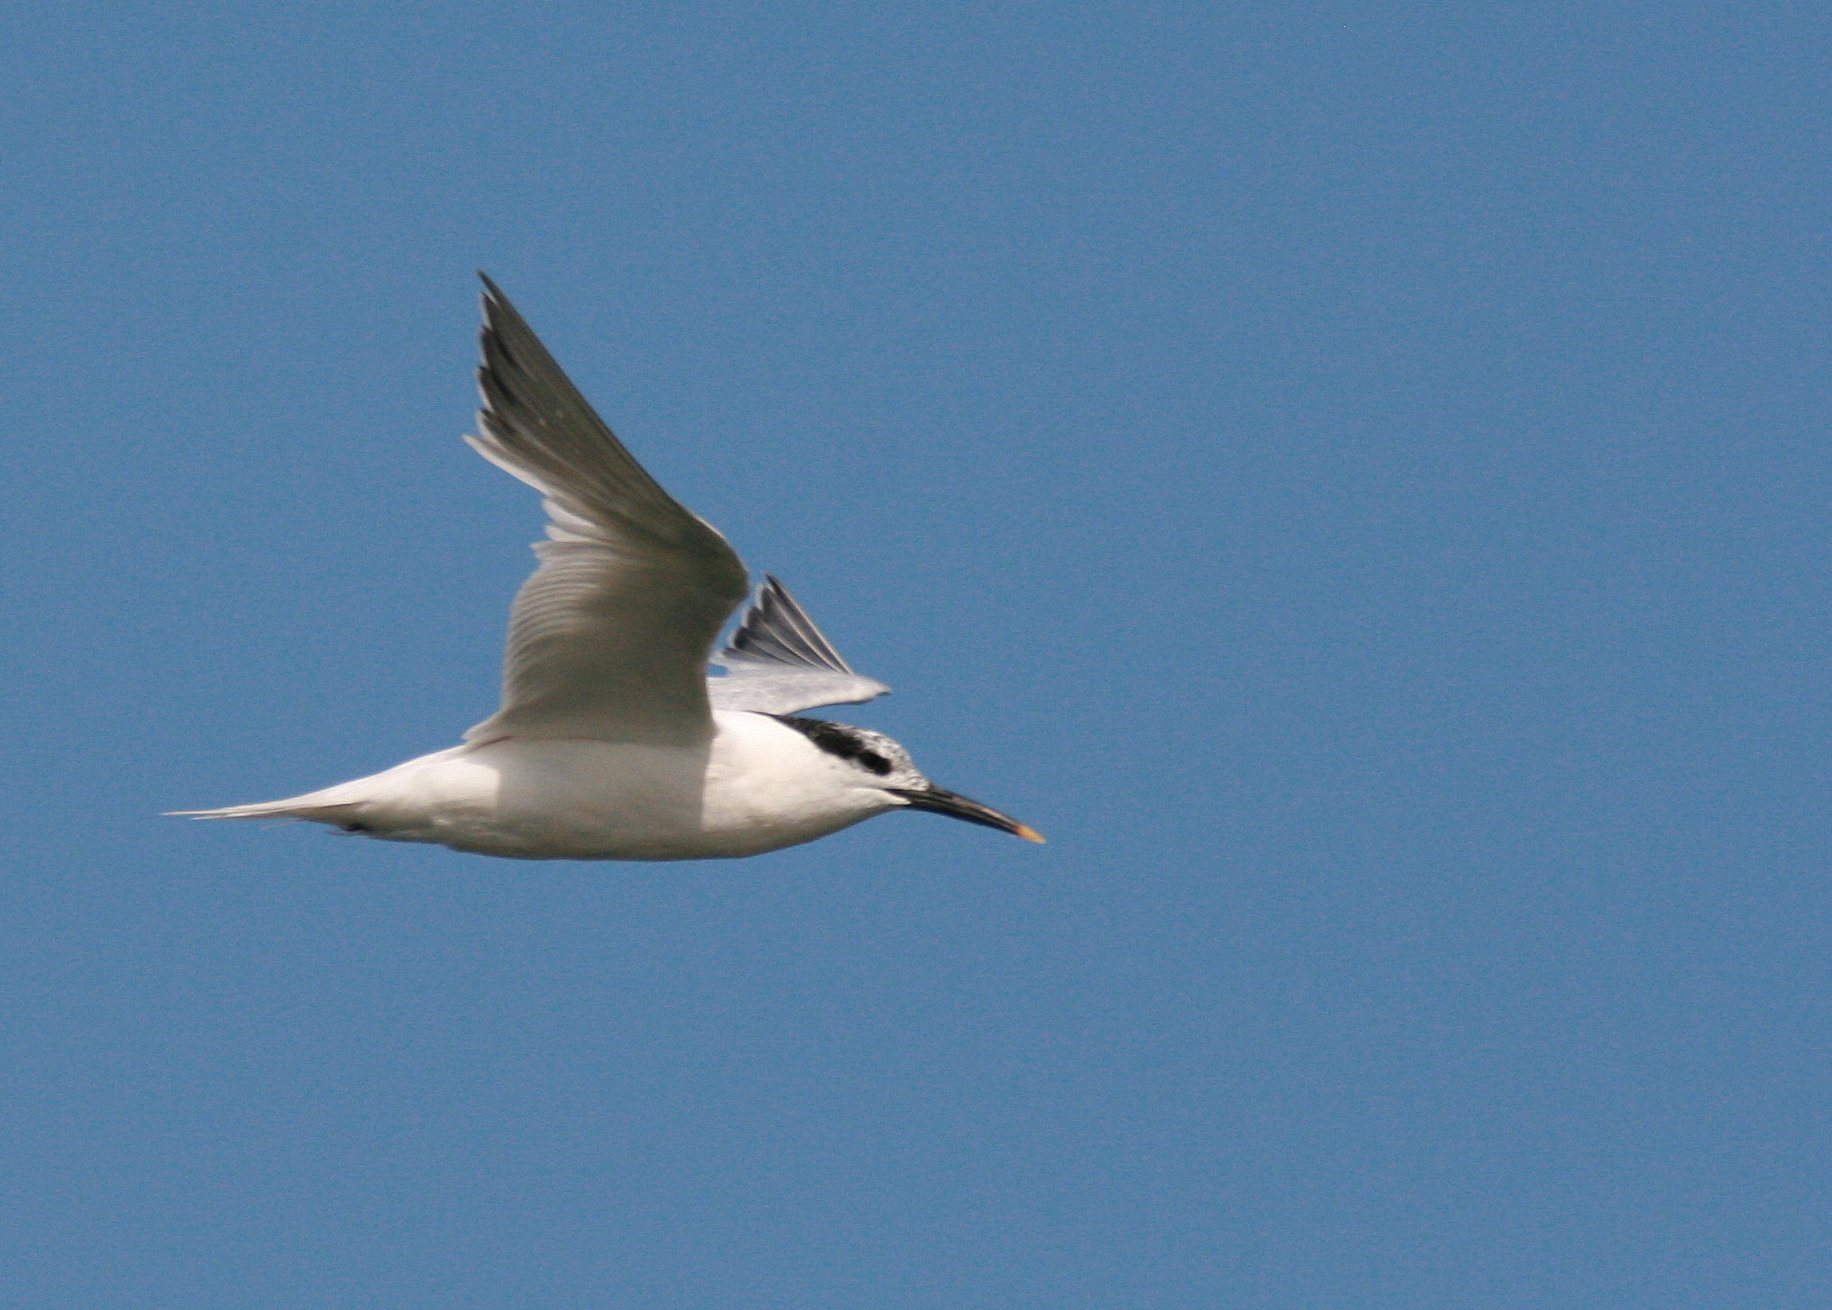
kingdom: Animalia
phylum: Chordata
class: Aves
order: Charadriiformes
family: Laridae
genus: Thalasseus
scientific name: Thalasseus sandvicensis
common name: Sandwich tern
